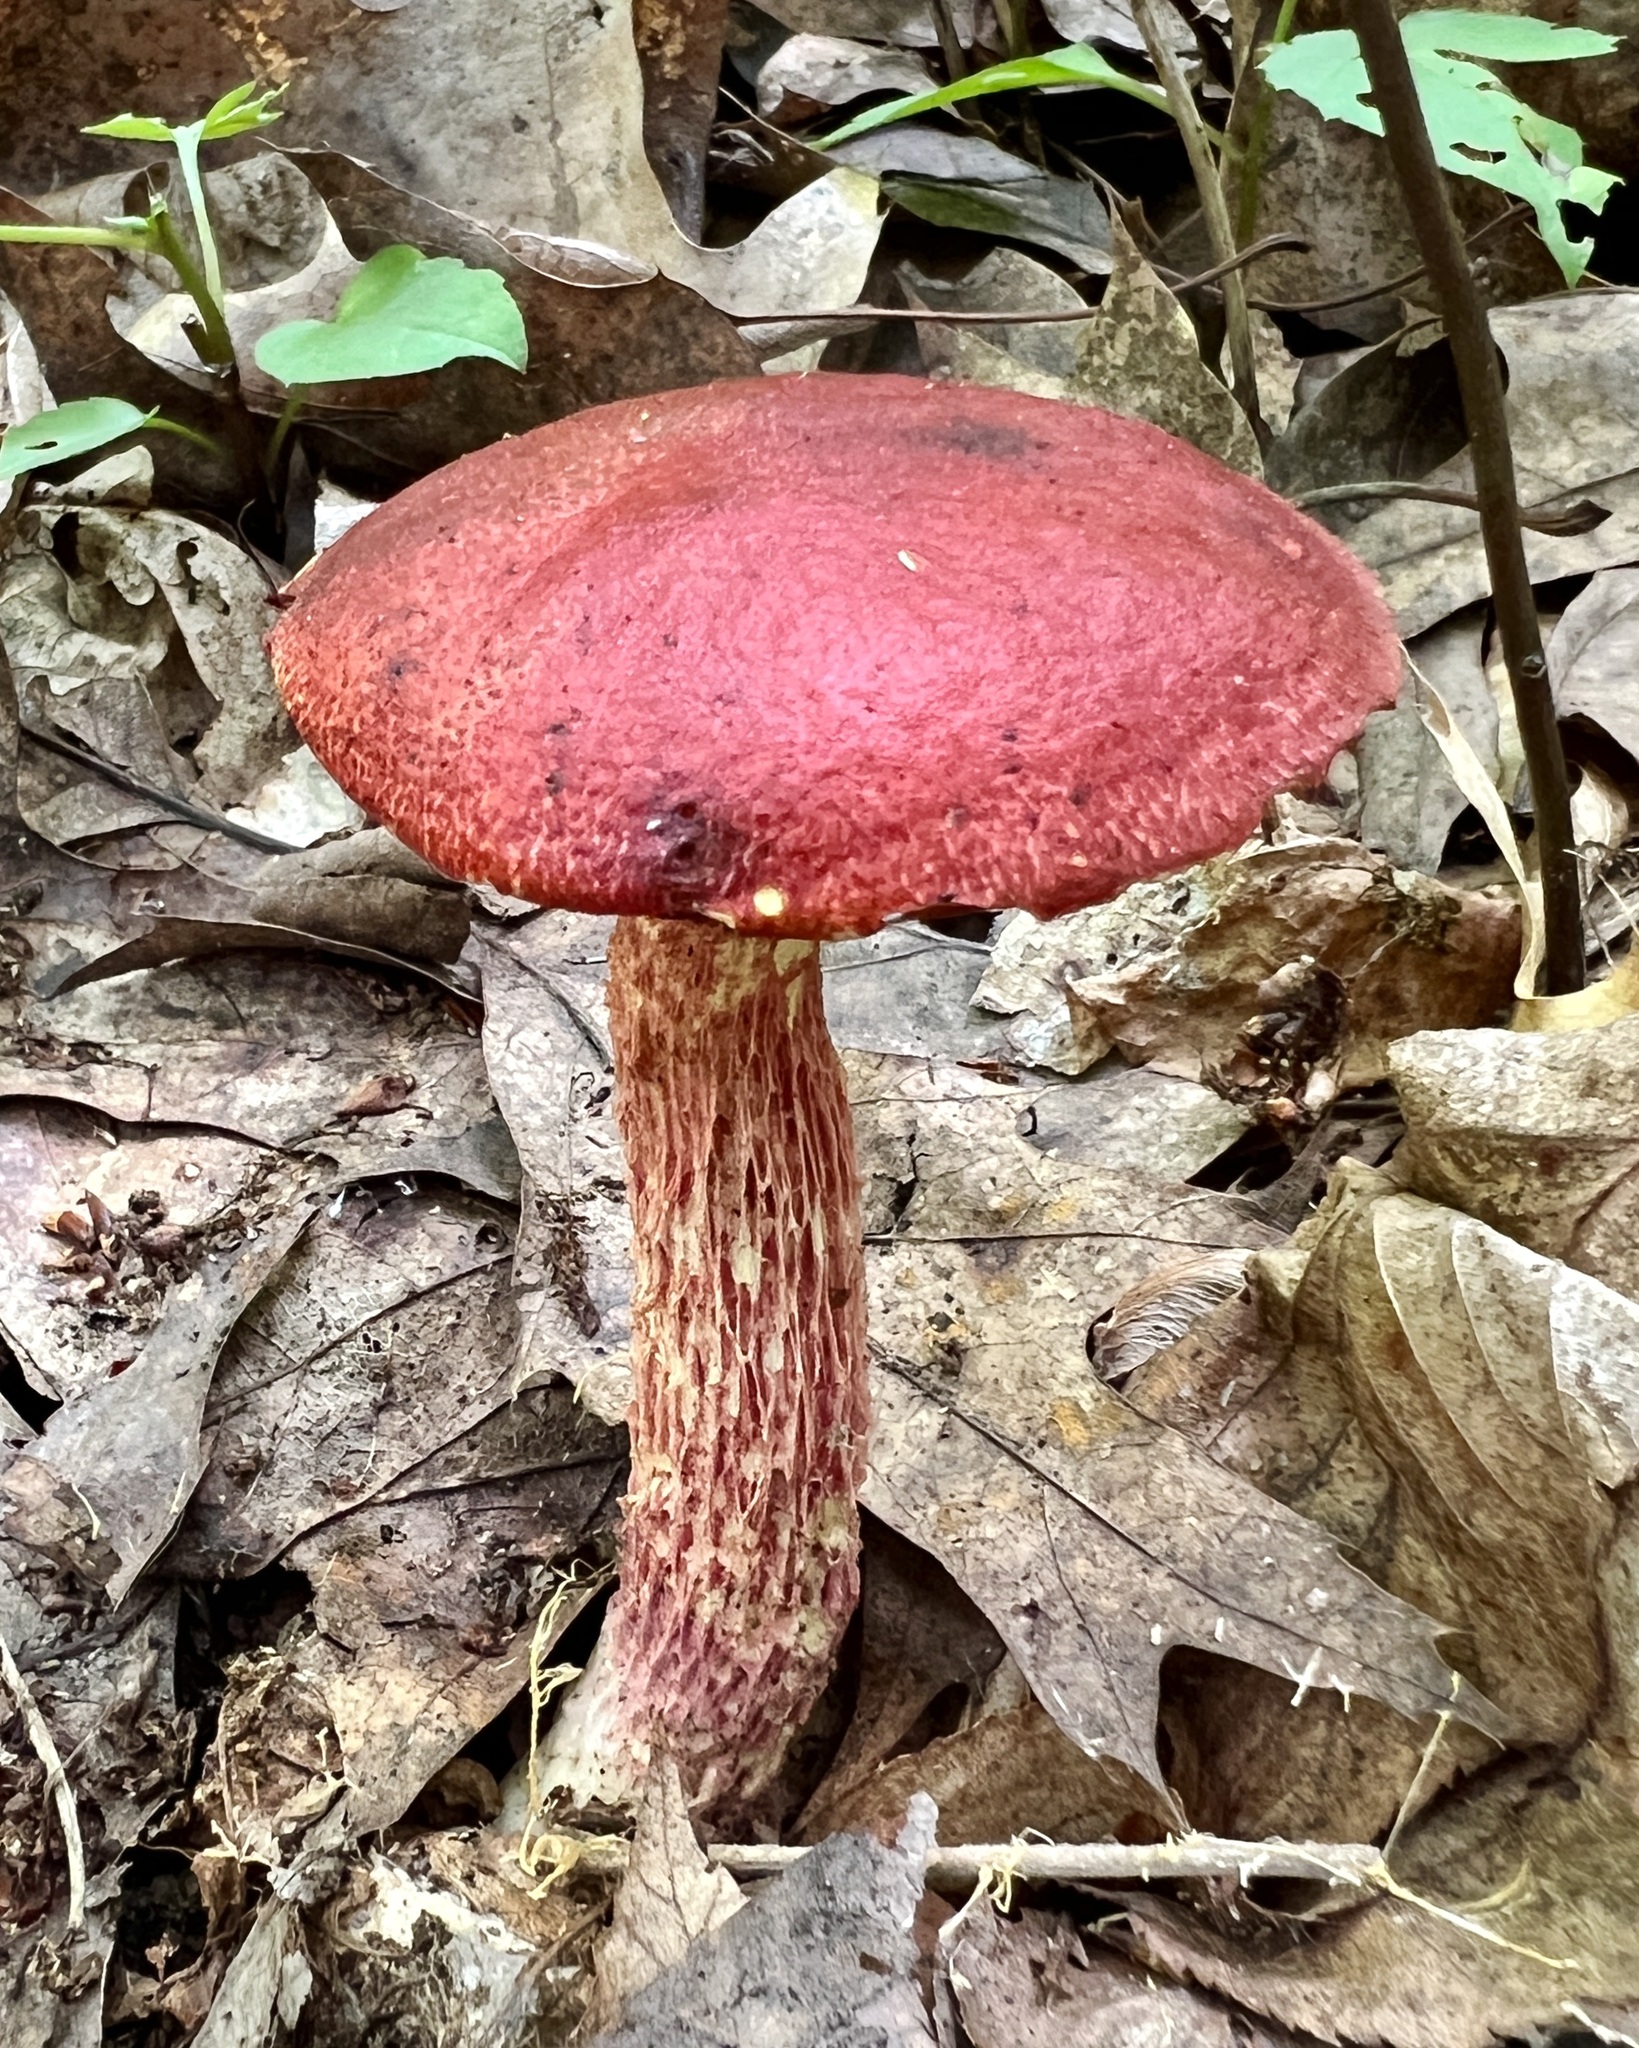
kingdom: Fungi
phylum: Basidiomycota
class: Agaricomycetes
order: Boletales
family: Boletaceae
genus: Butyriboletus
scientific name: Butyriboletus frostii
